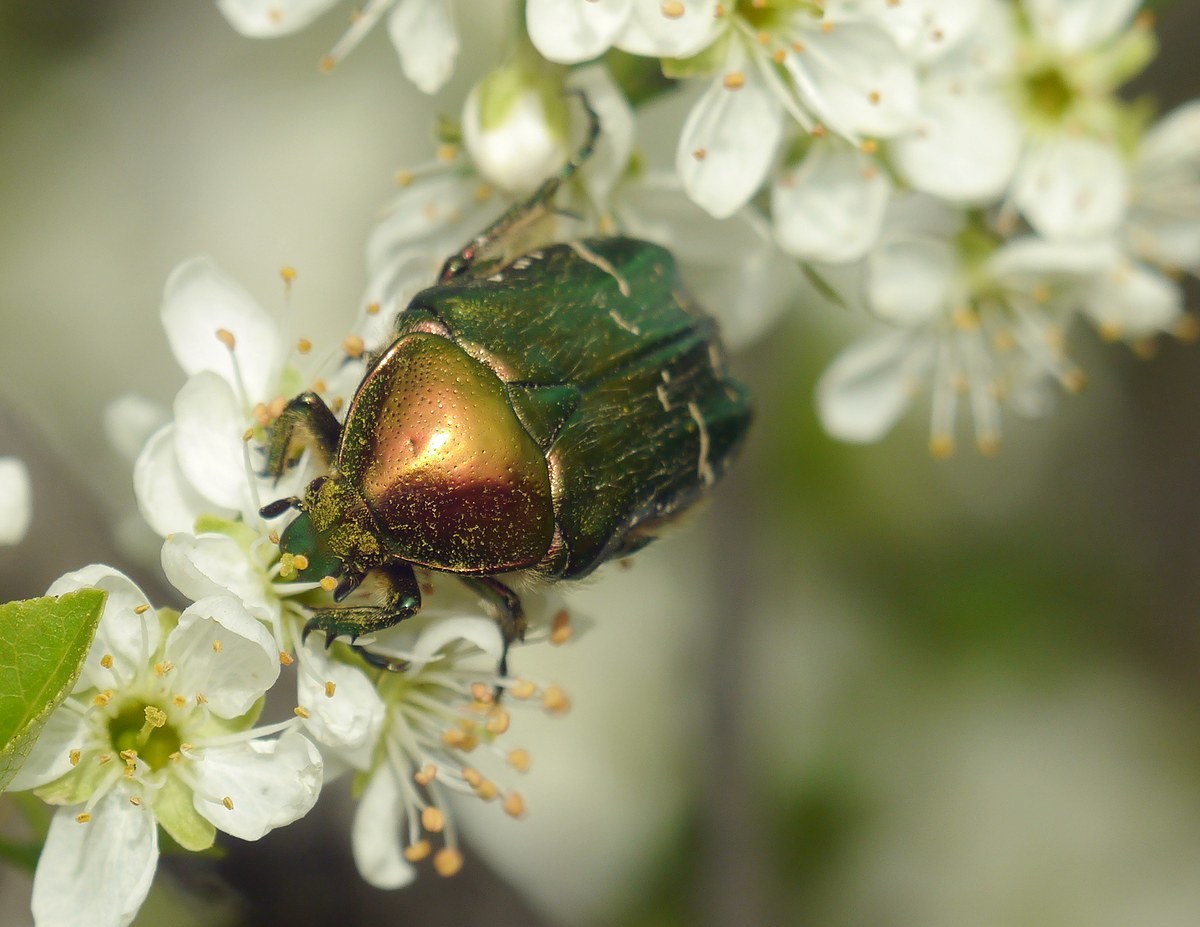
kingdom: Animalia
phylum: Arthropoda
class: Insecta
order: Coleoptera
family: Scarabaeidae
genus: Cetonia
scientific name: Cetonia aurata
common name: Rose chafer
